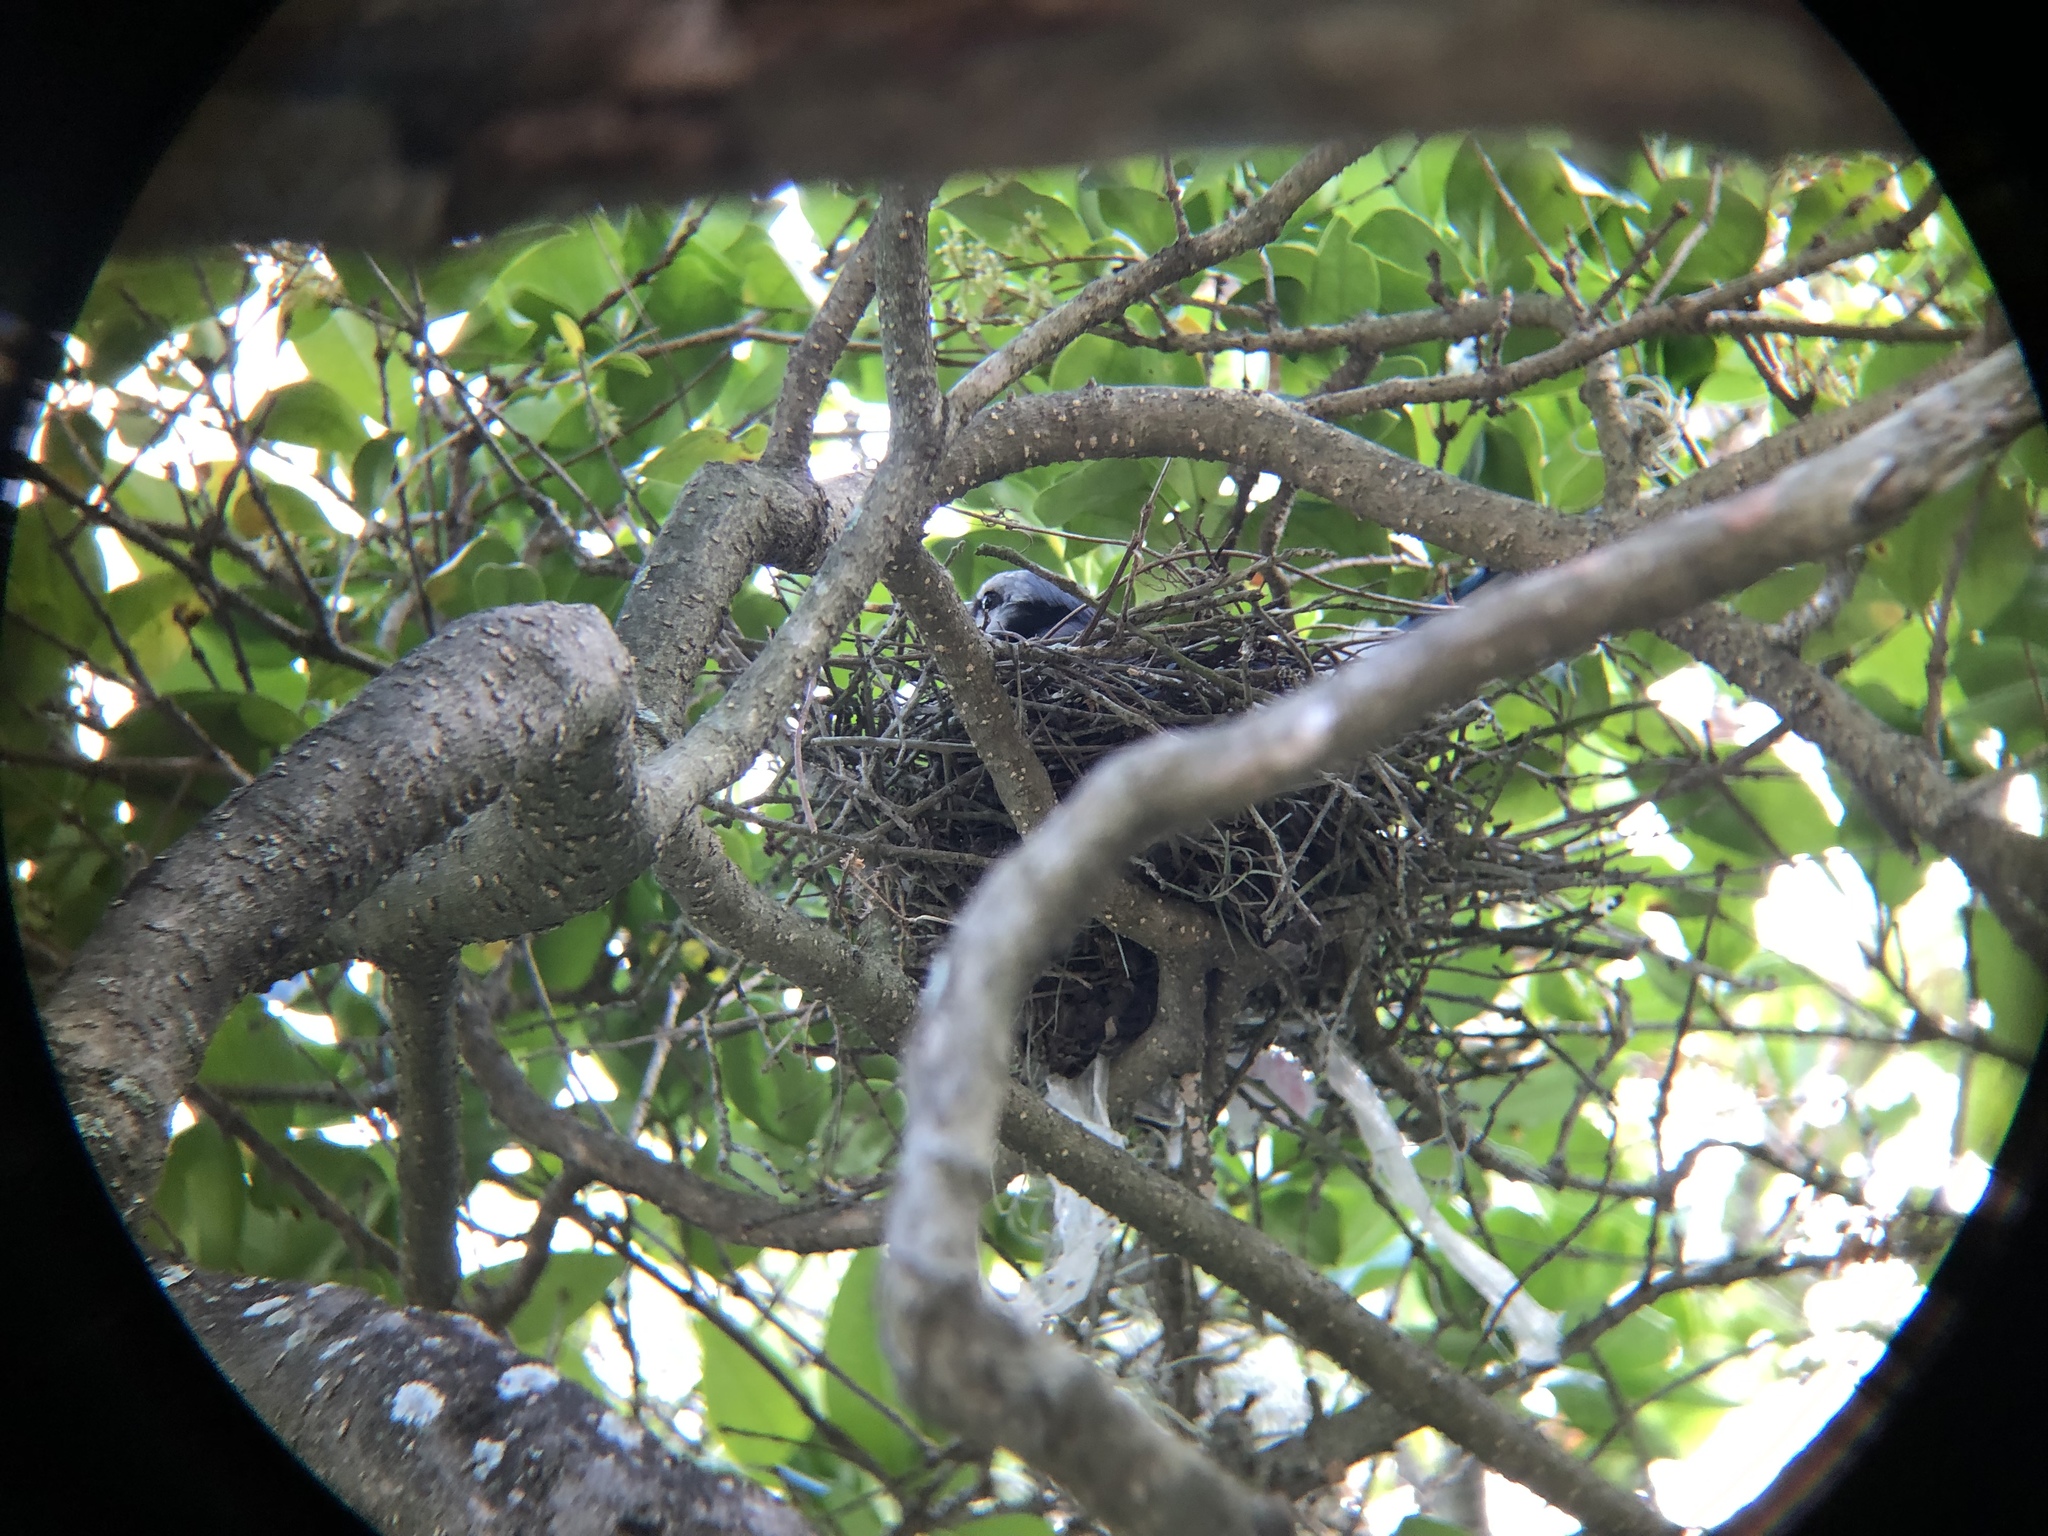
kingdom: Animalia
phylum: Chordata
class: Aves
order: Passeriformes
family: Corvidae
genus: Cyanocitta
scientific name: Cyanocitta cristata
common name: Blue jay
